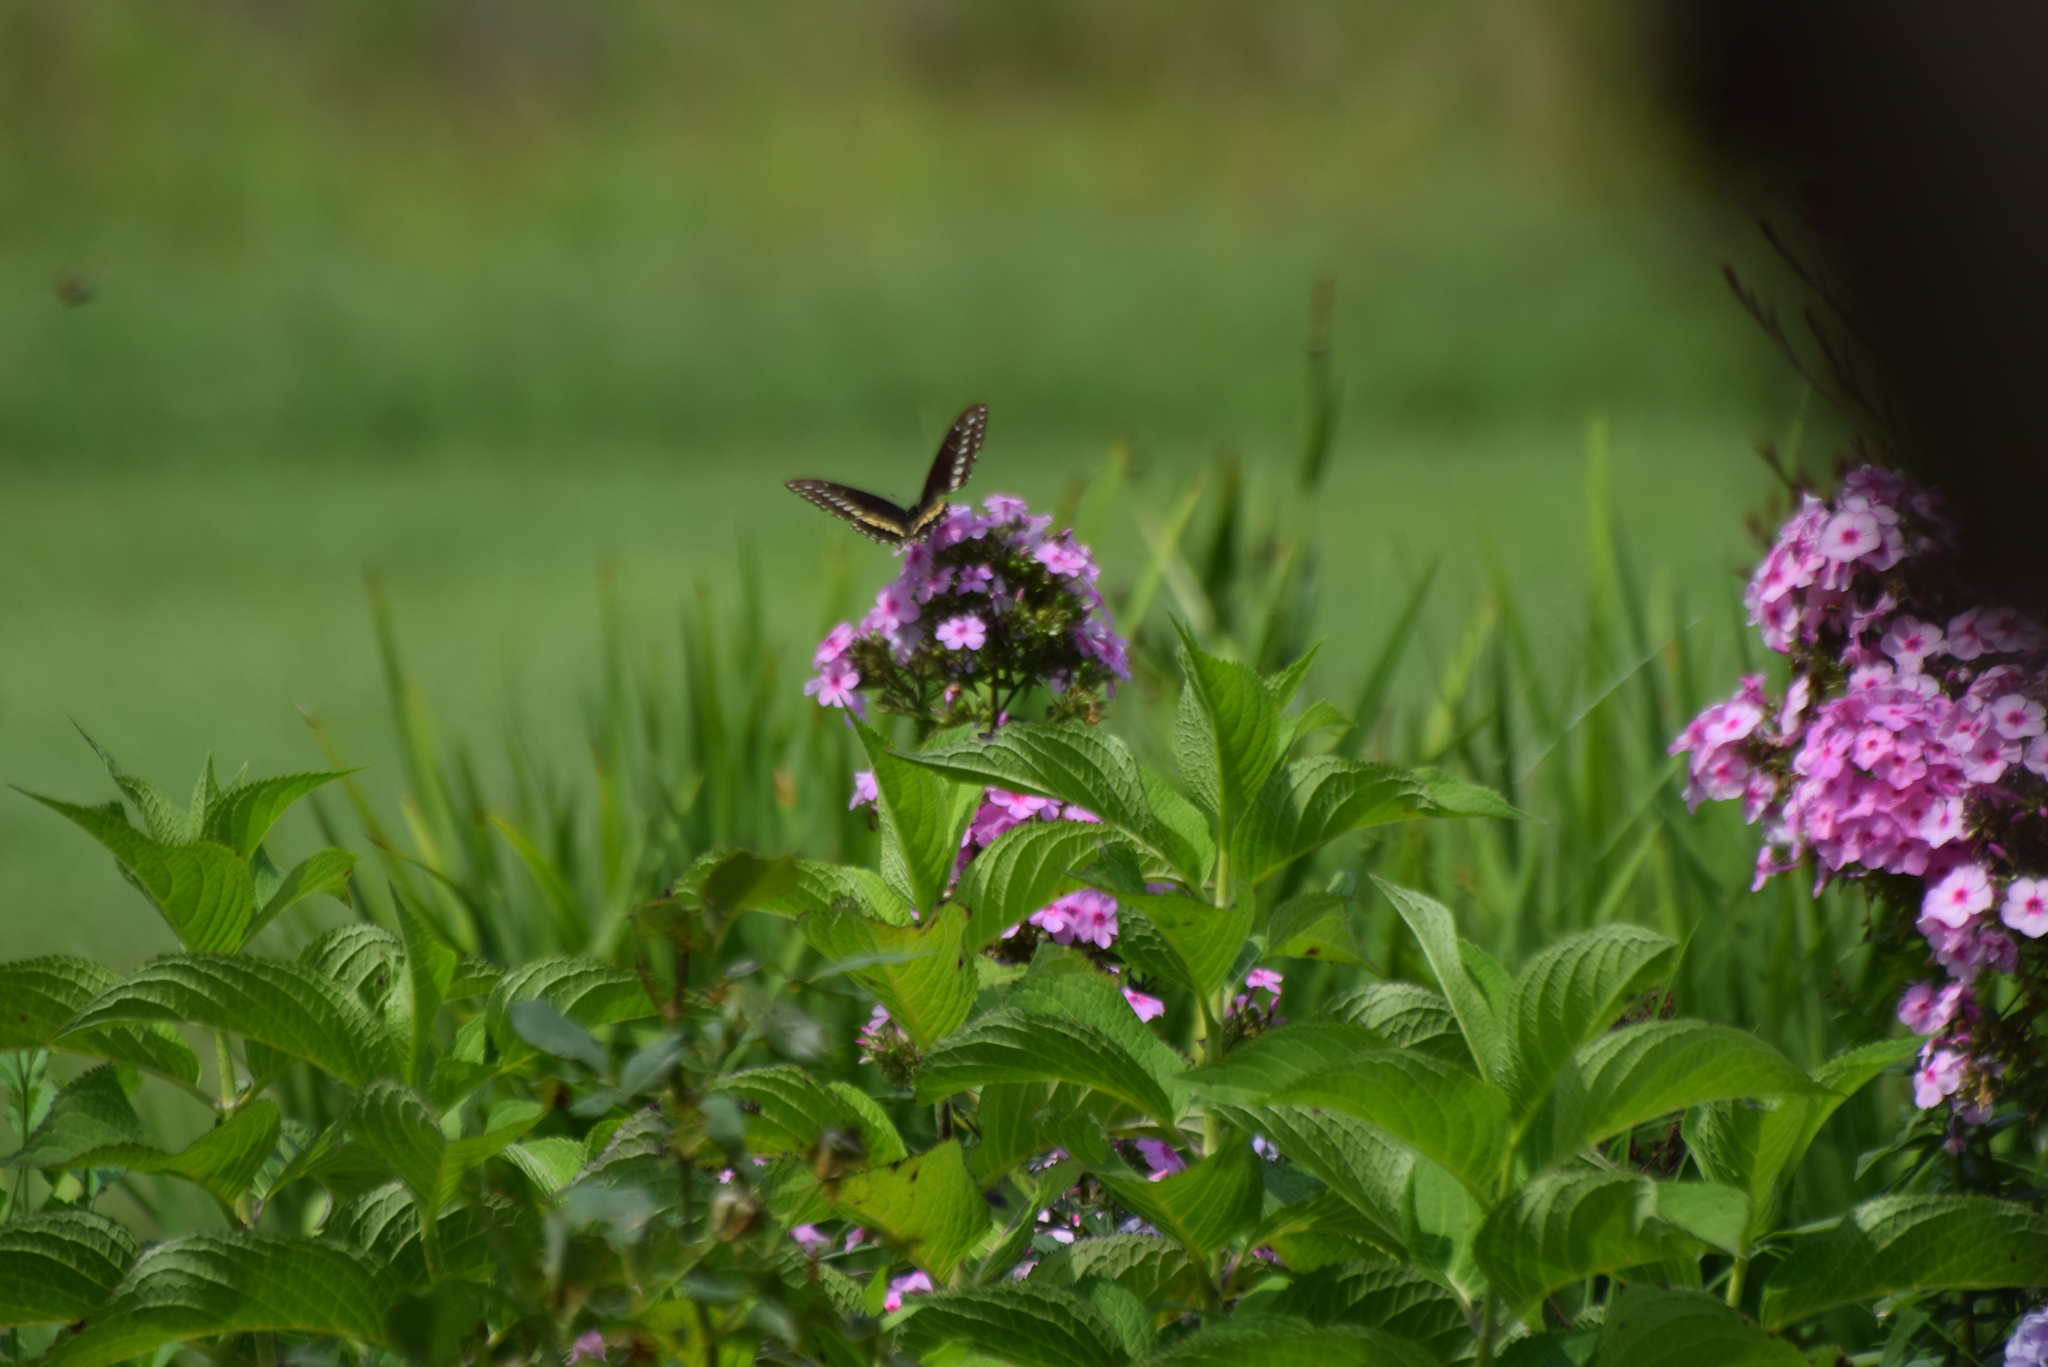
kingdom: Animalia
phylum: Arthropoda
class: Insecta
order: Lepidoptera
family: Papilionidae
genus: Papilio
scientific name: Papilio polyxenes
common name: Black swallowtail
